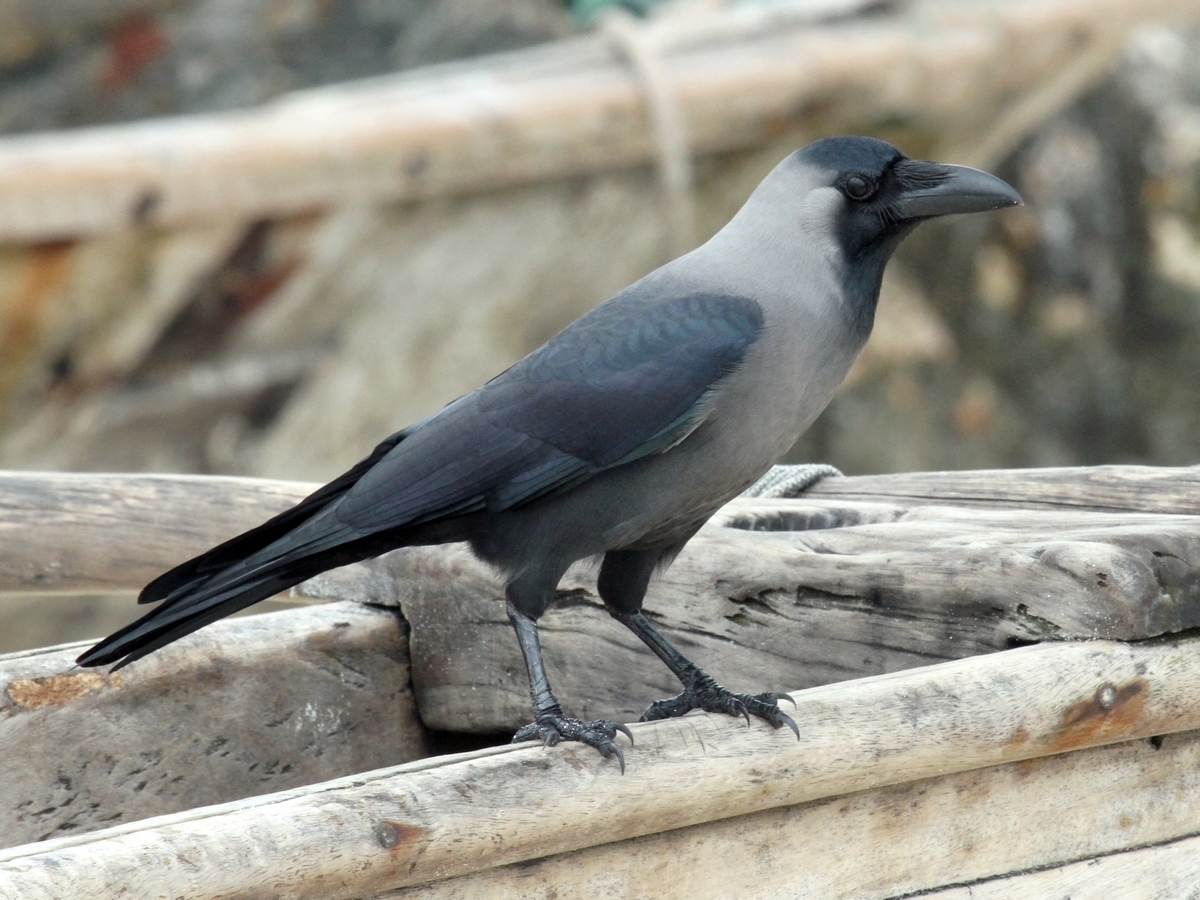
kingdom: Animalia
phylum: Chordata
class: Aves
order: Passeriformes
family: Corvidae
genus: Corvus
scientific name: Corvus splendens
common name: House crow
